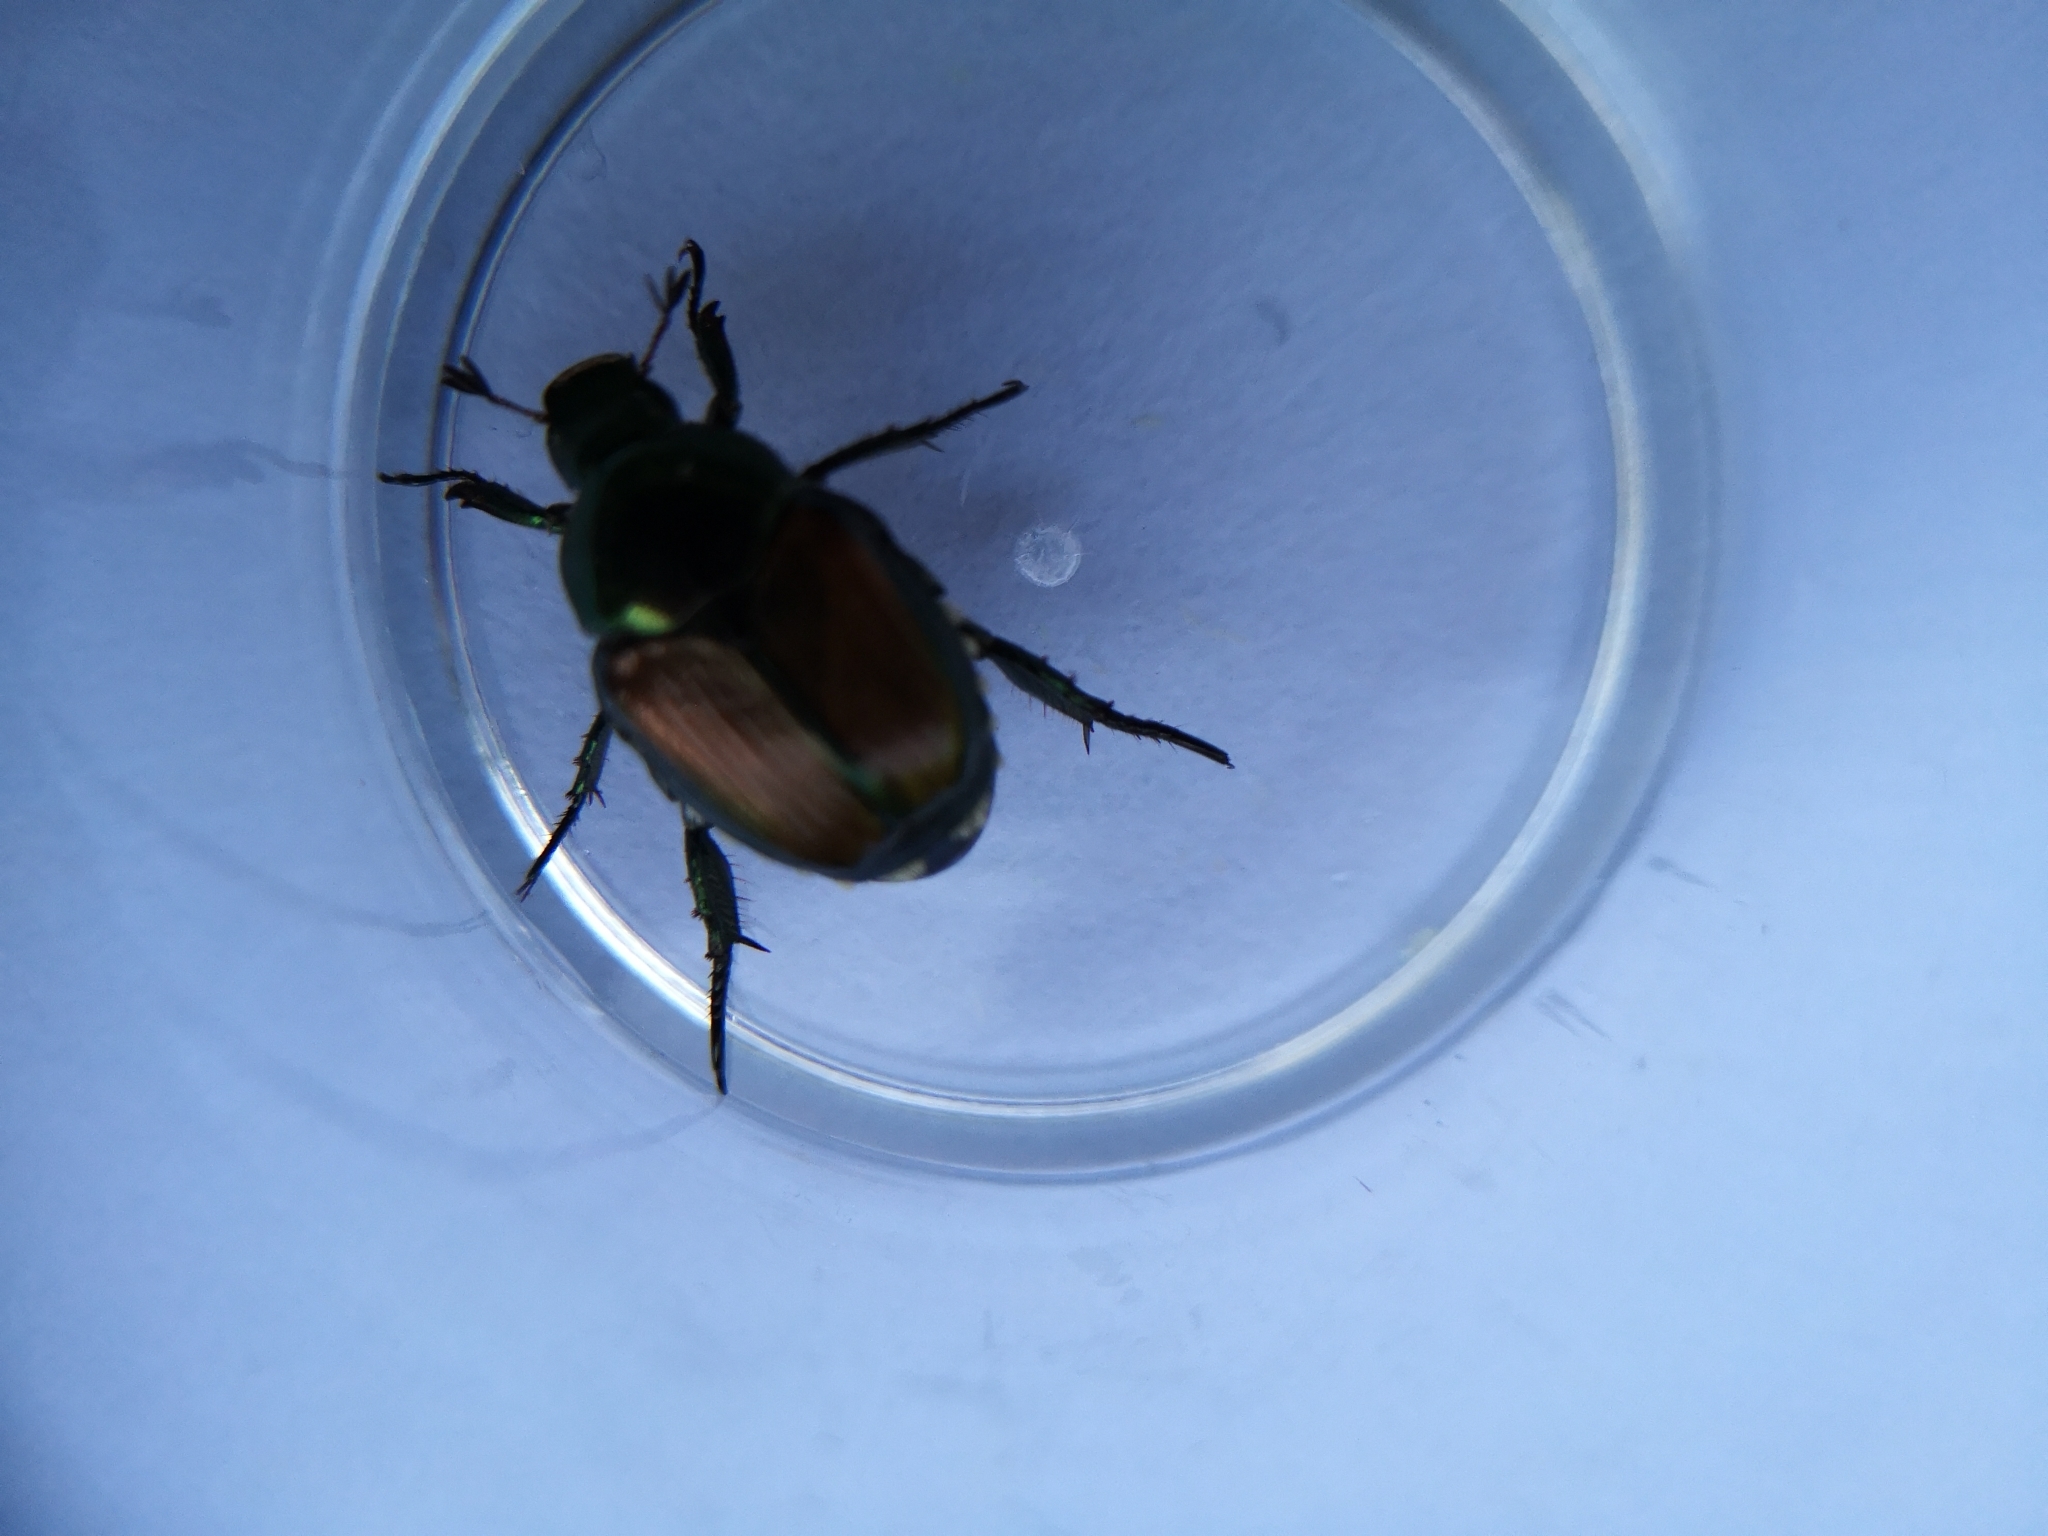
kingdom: Animalia
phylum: Arthropoda
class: Insecta
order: Coleoptera
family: Scarabaeidae
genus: Popillia
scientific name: Popillia japonica
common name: Japanese beetle
